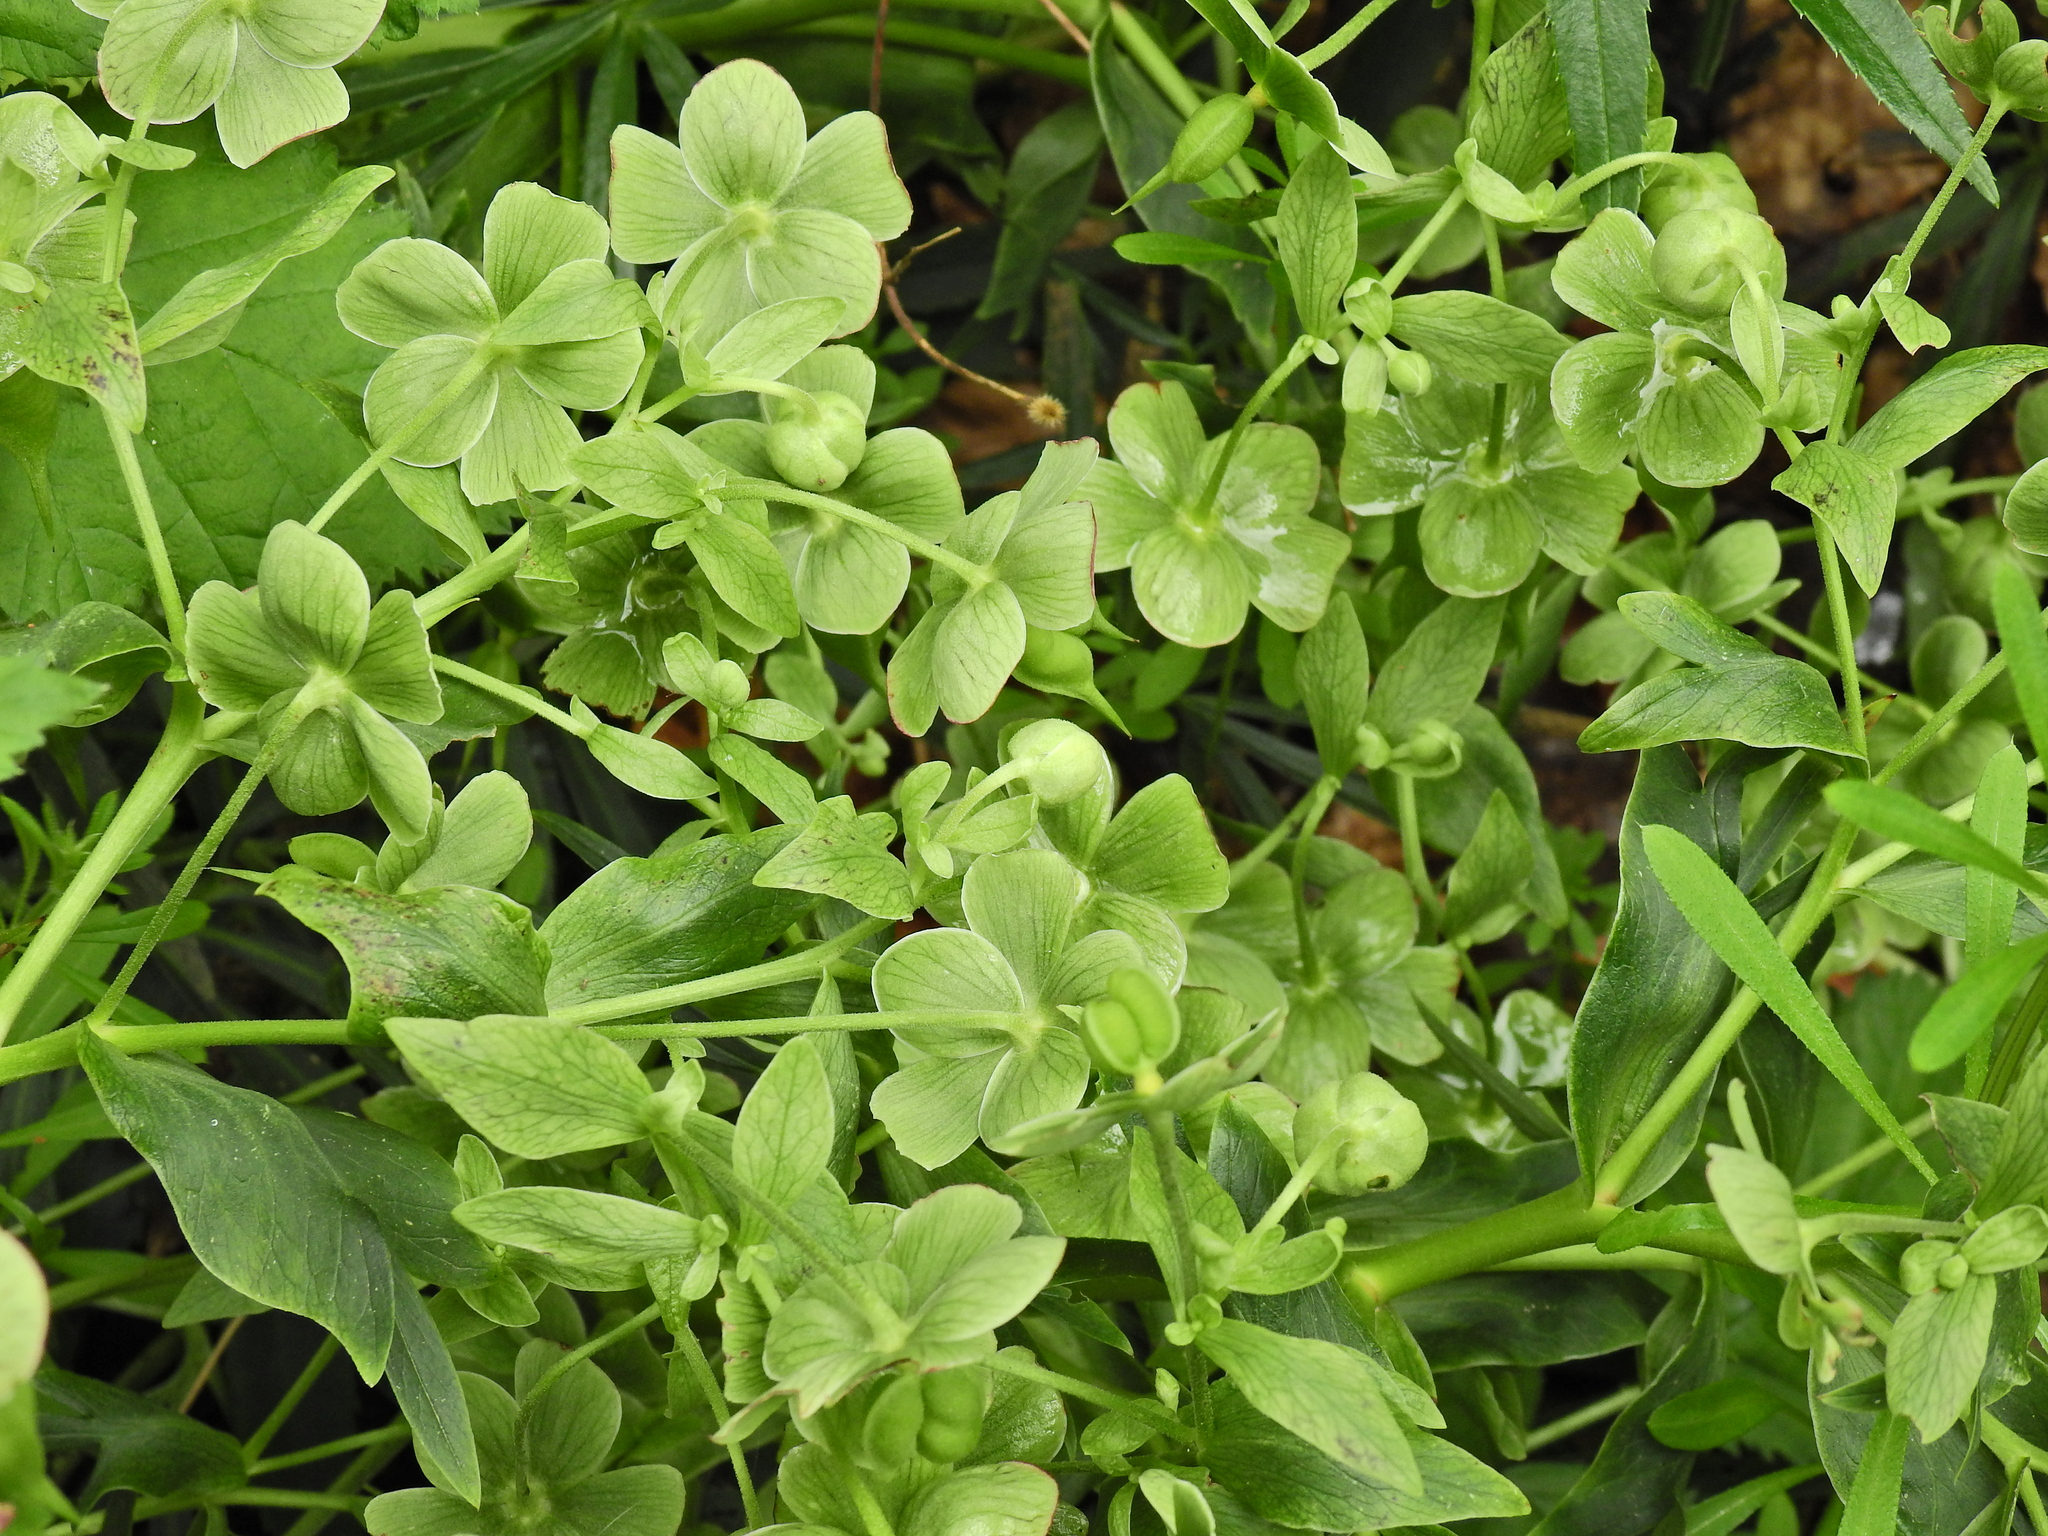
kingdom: Plantae
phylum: Tracheophyta
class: Magnoliopsida
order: Ranunculales
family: Ranunculaceae
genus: Helleborus
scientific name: Helleborus foetidus
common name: Stinking hellebore
